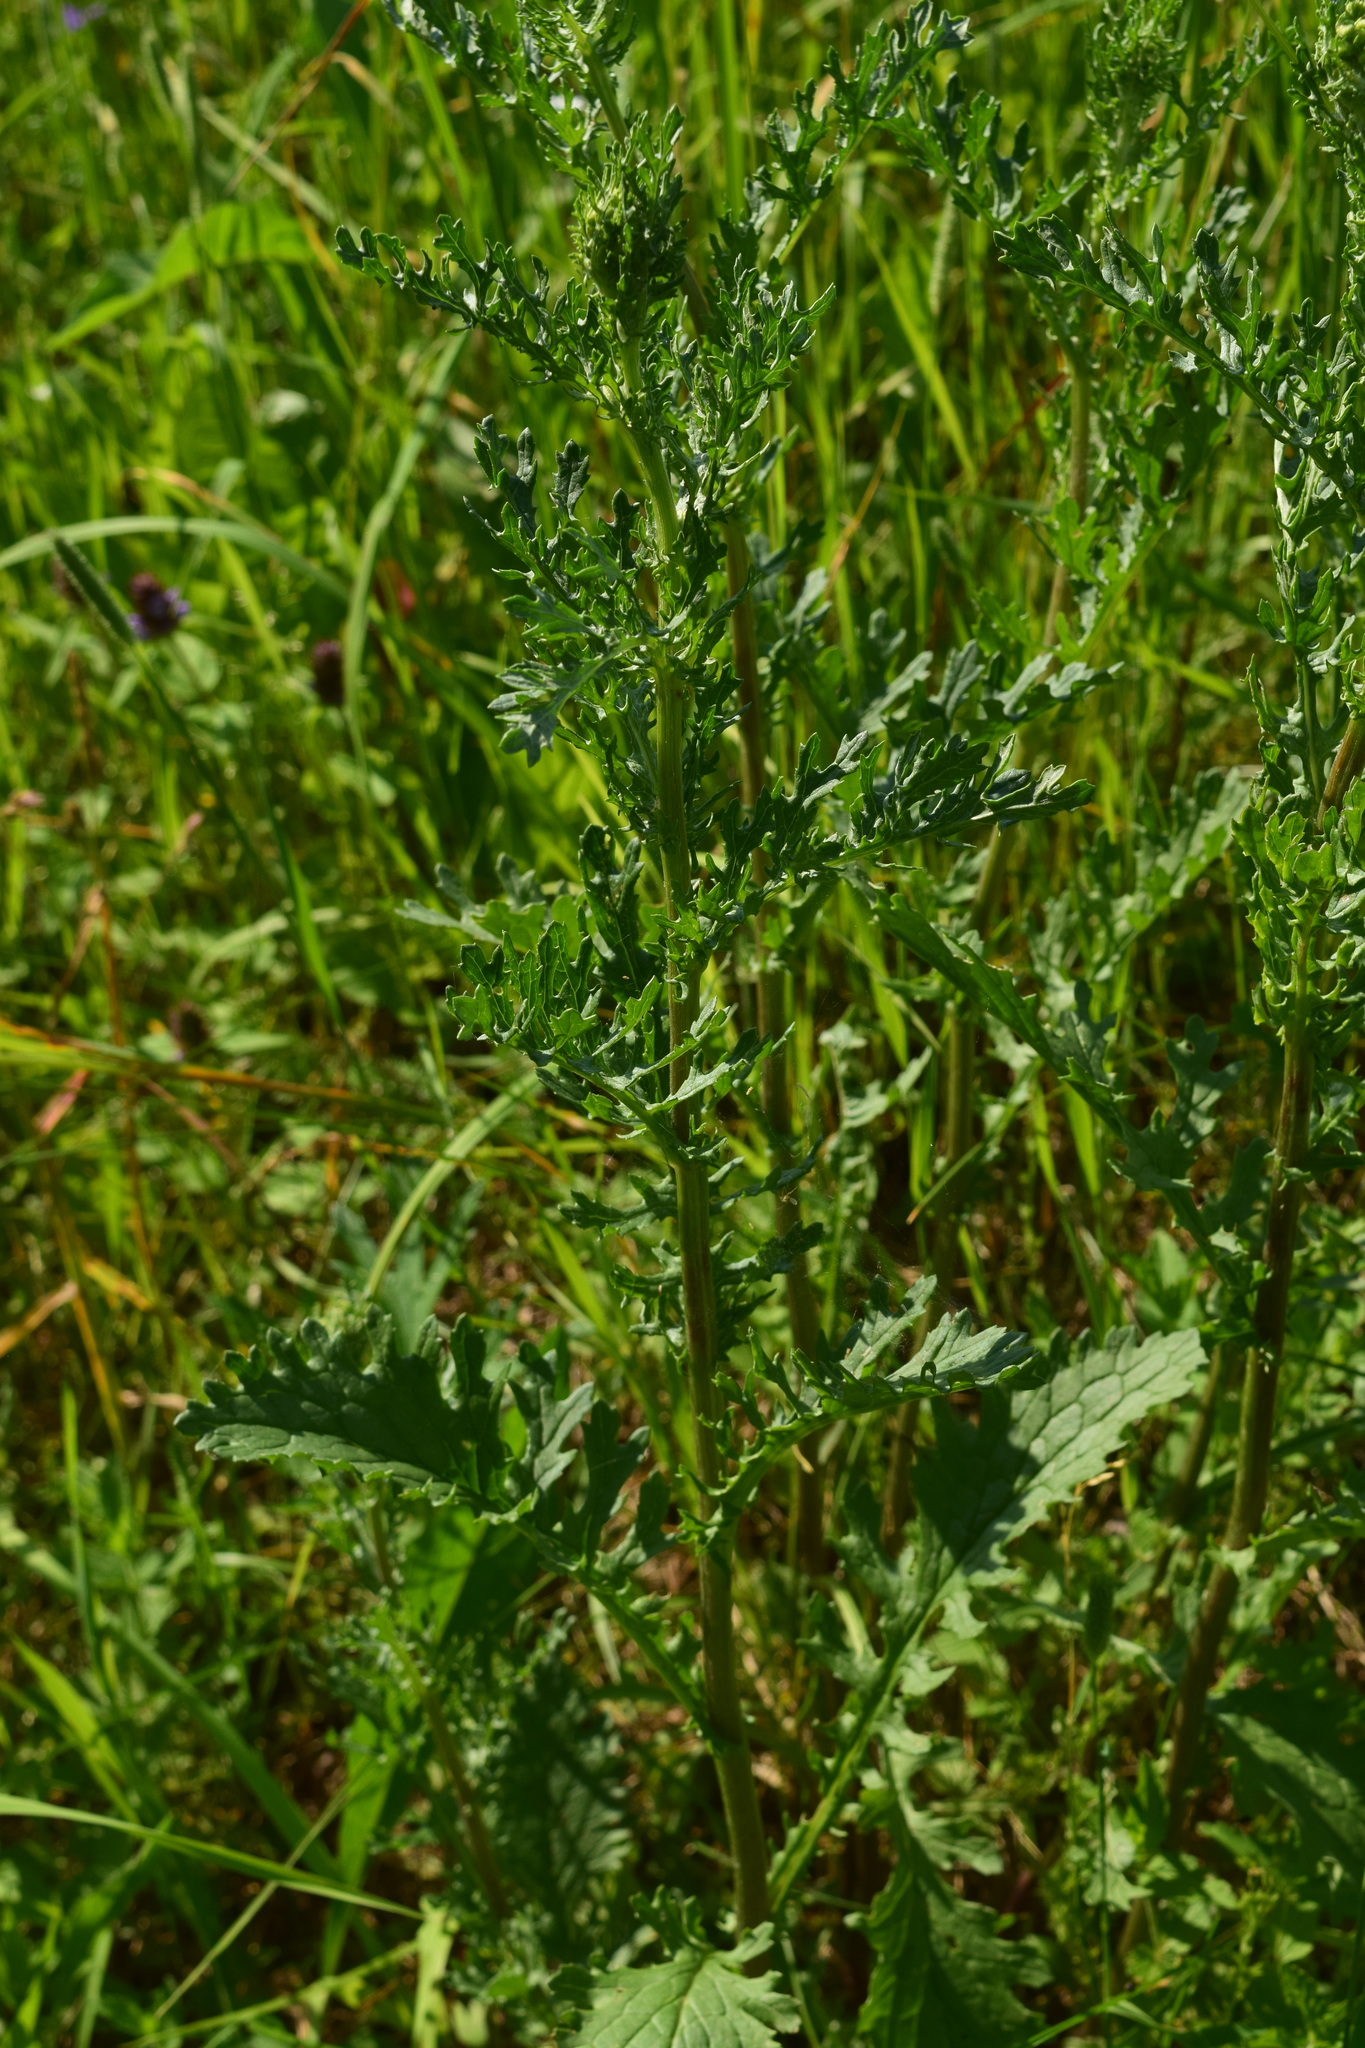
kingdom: Plantae
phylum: Tracheophyta
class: Magnoliopsida
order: Asterales
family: Asteraceae
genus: Jacobaea
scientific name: Jacobaea vulgaris
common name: Stinking willie
